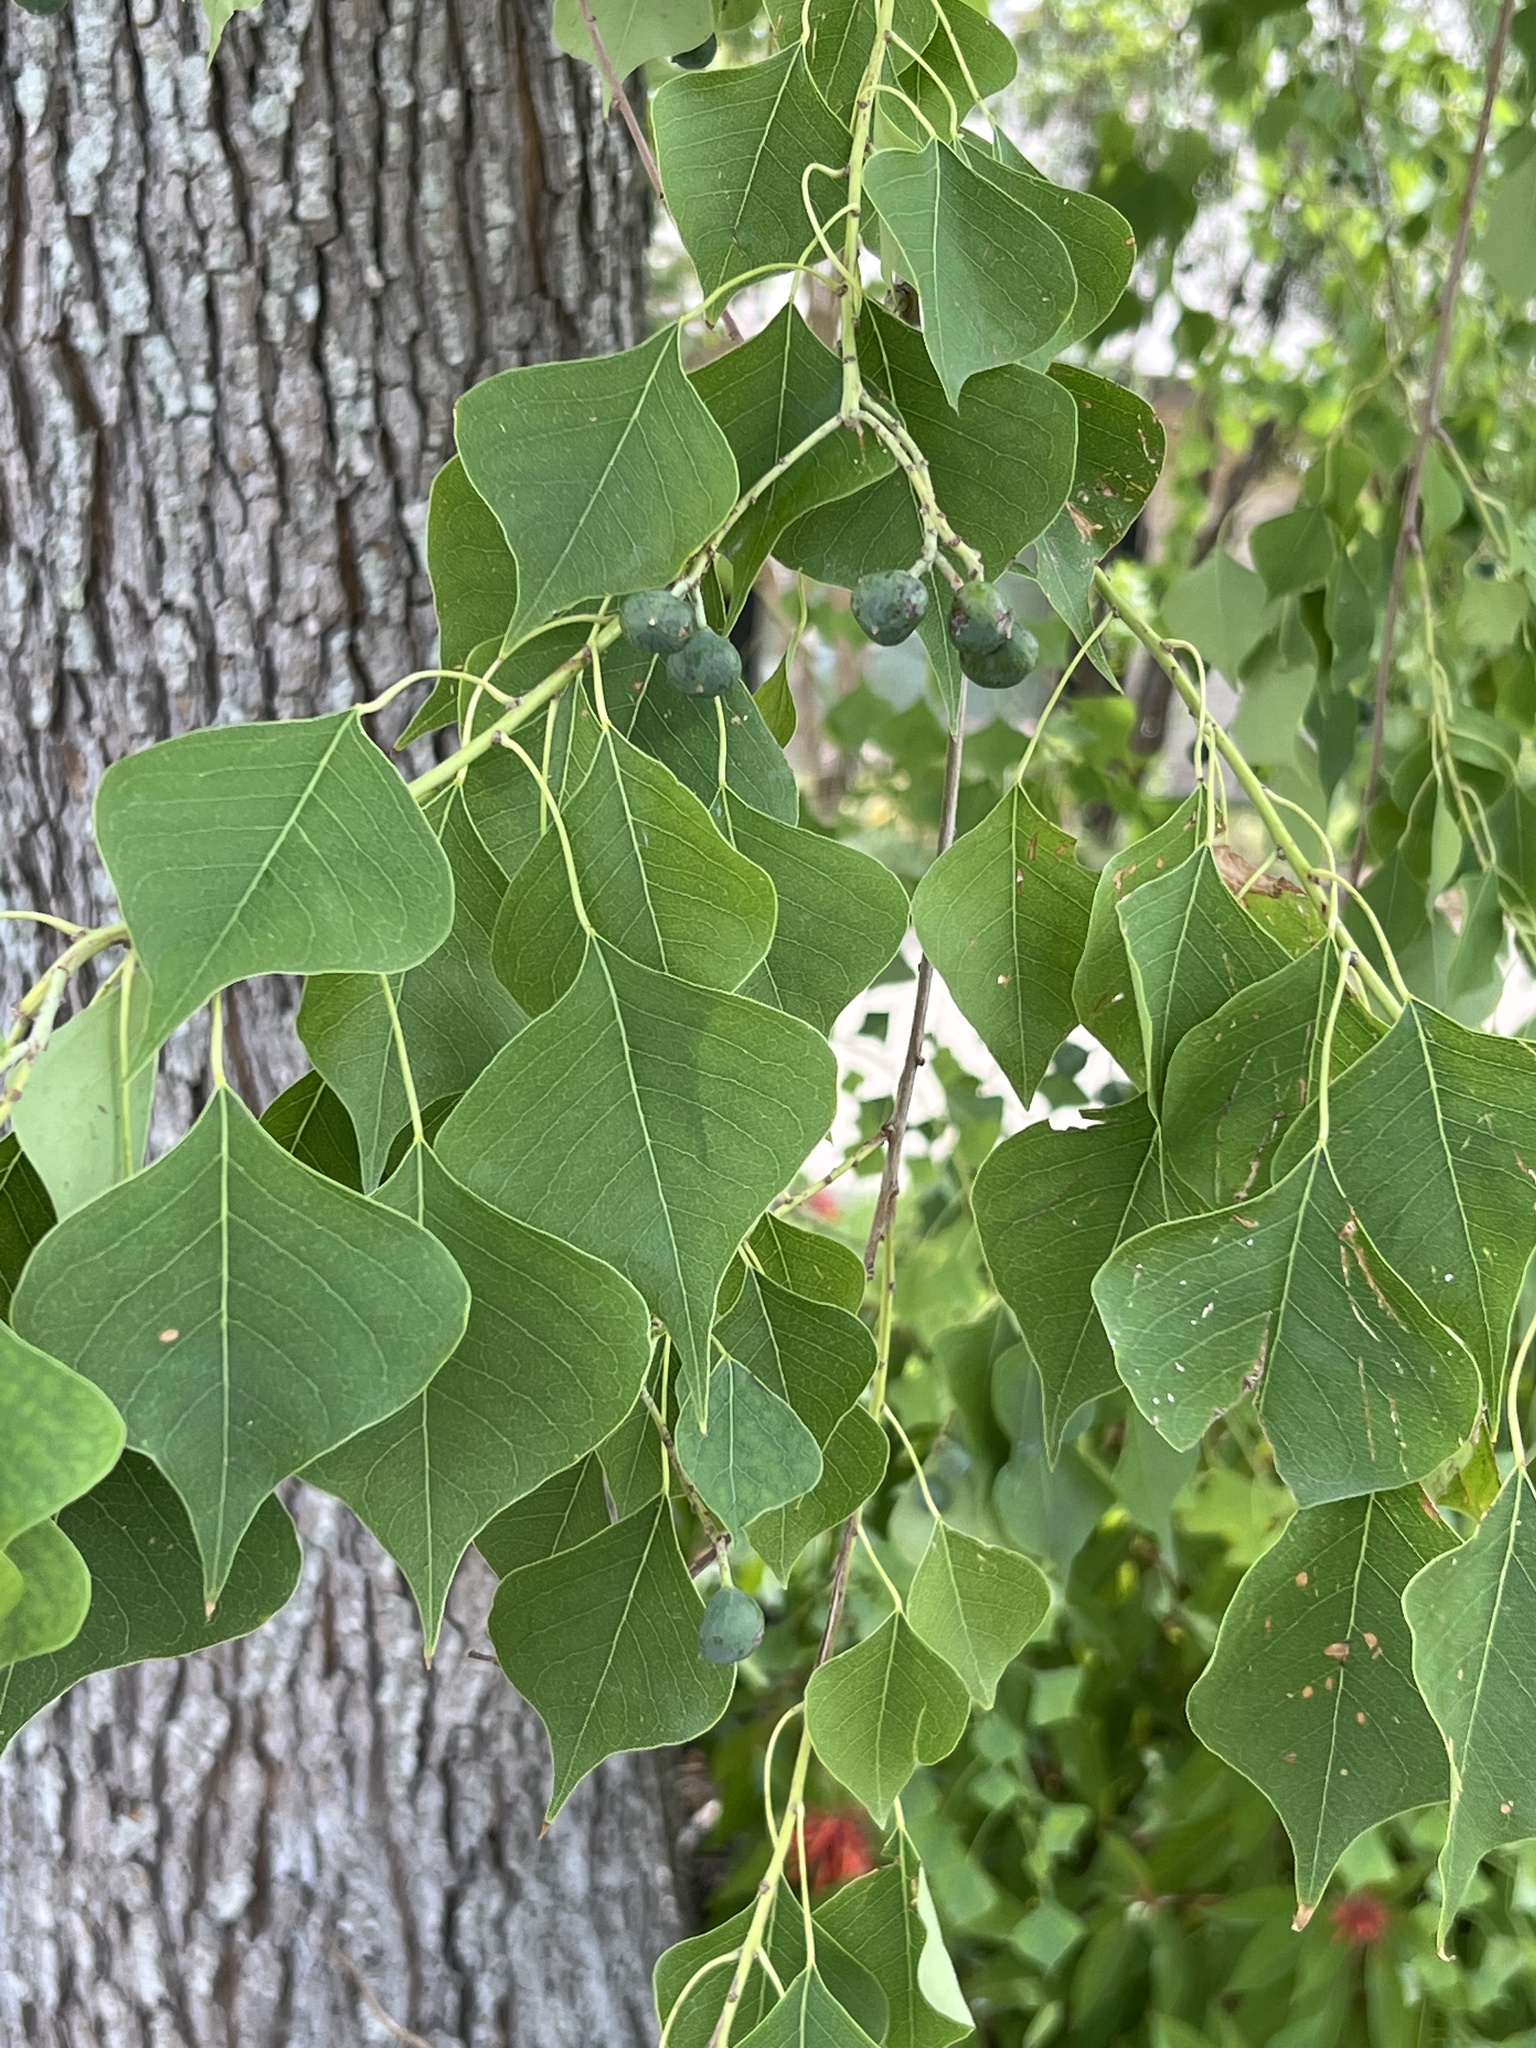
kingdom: Plantae
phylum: Tracheophyta
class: Magnoliopsida
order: Malpighiales
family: Euphorbiaceae
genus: Triadica
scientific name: Triadica sebifera
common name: Chinese tallow
